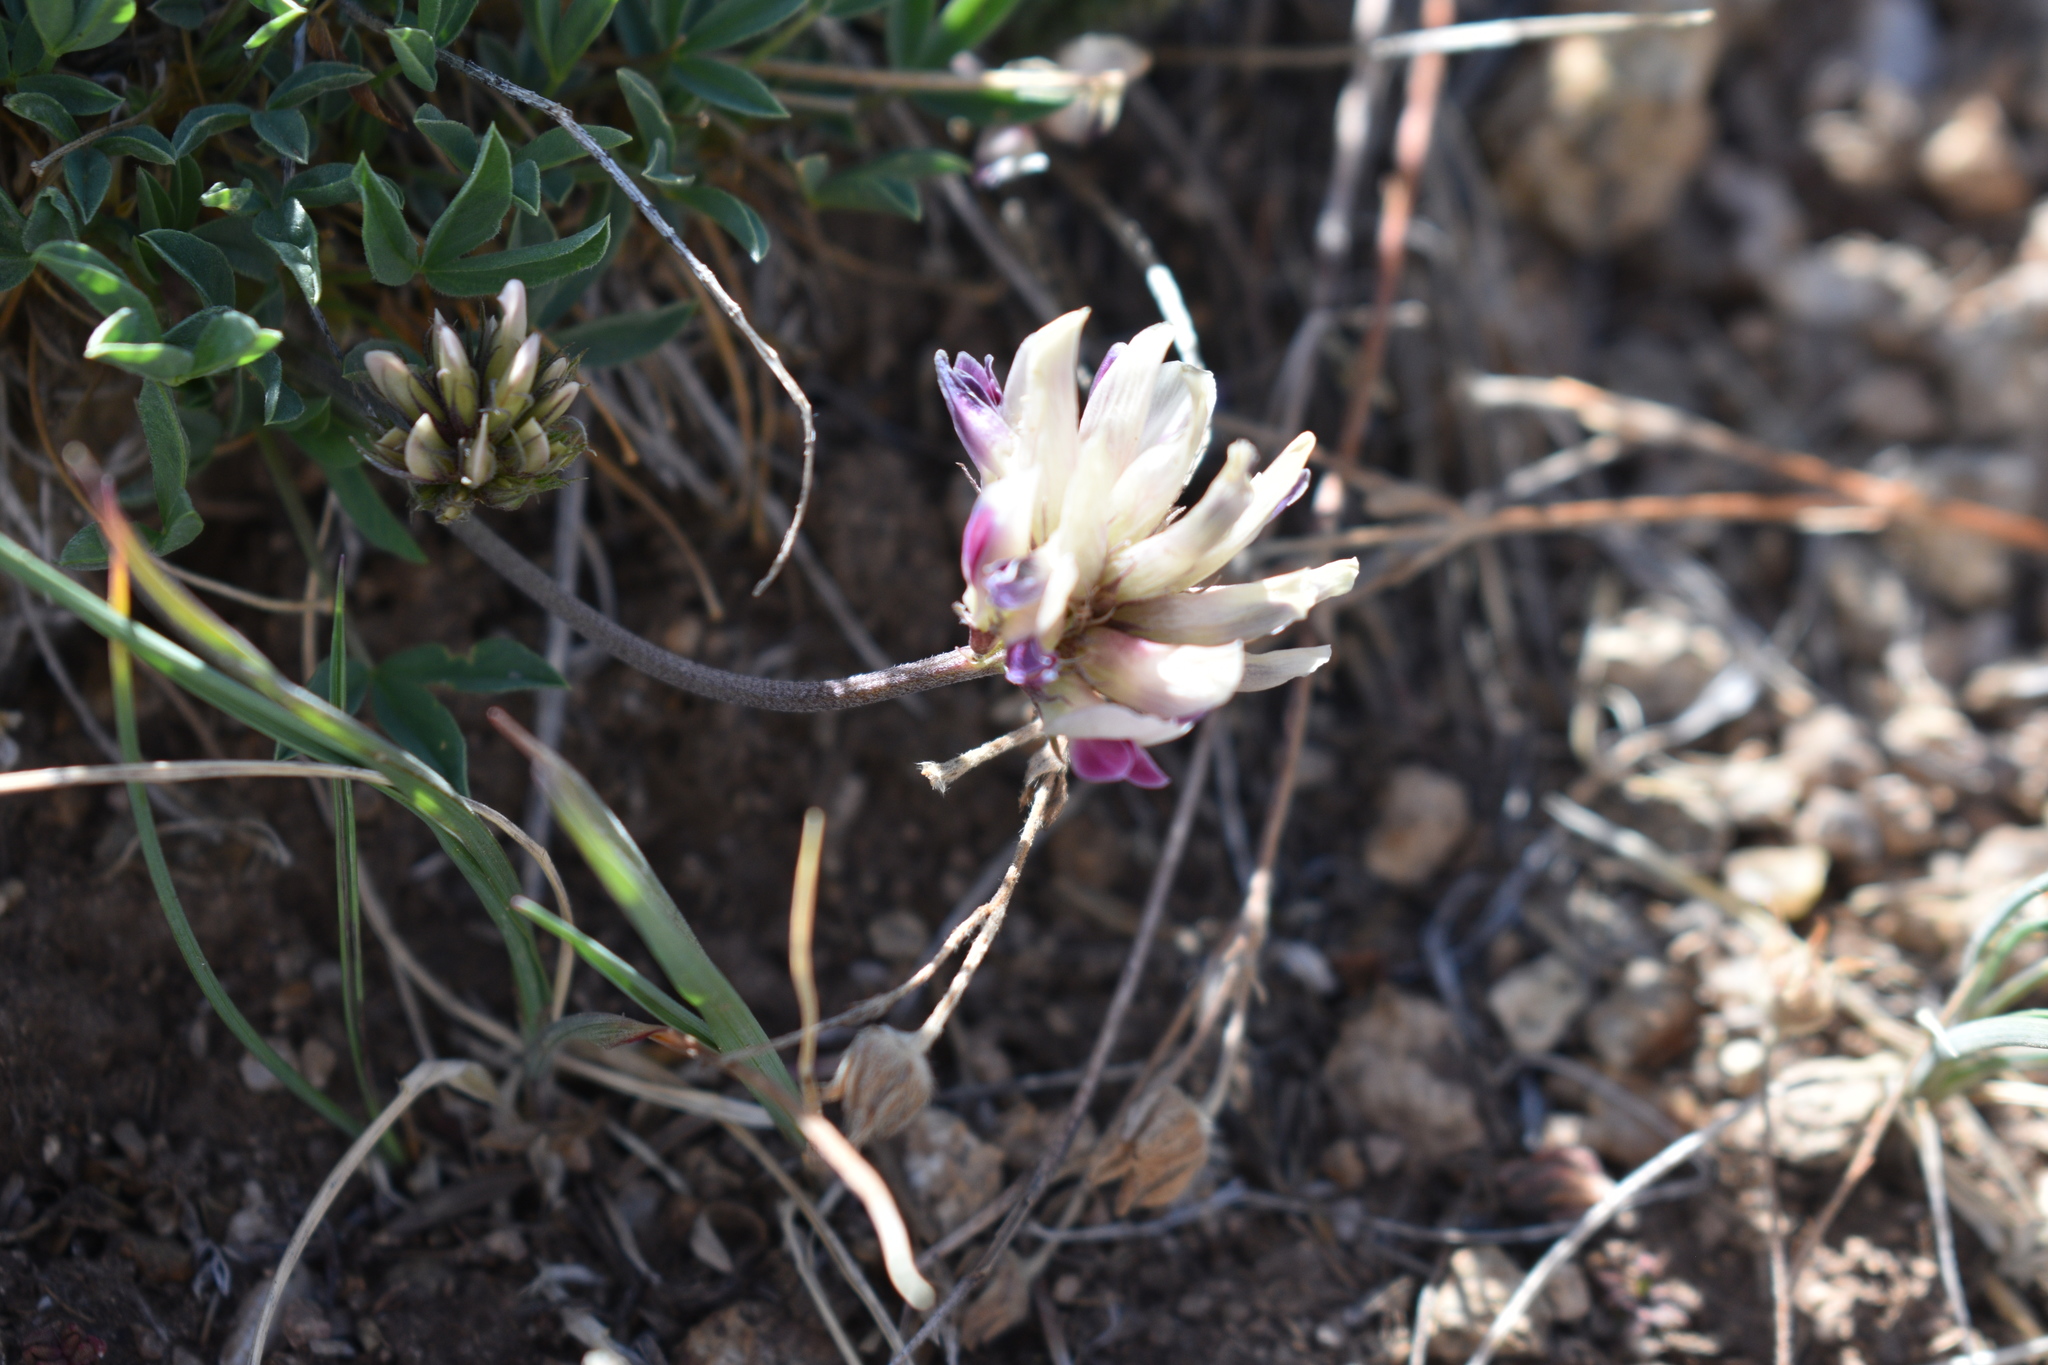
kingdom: Plantae
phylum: Tracheophyta
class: Magnoliopsida
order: Fabales
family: Fabaceae
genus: Trifolium
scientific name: Trifolium dasyphyllum
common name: Whip-root clover
